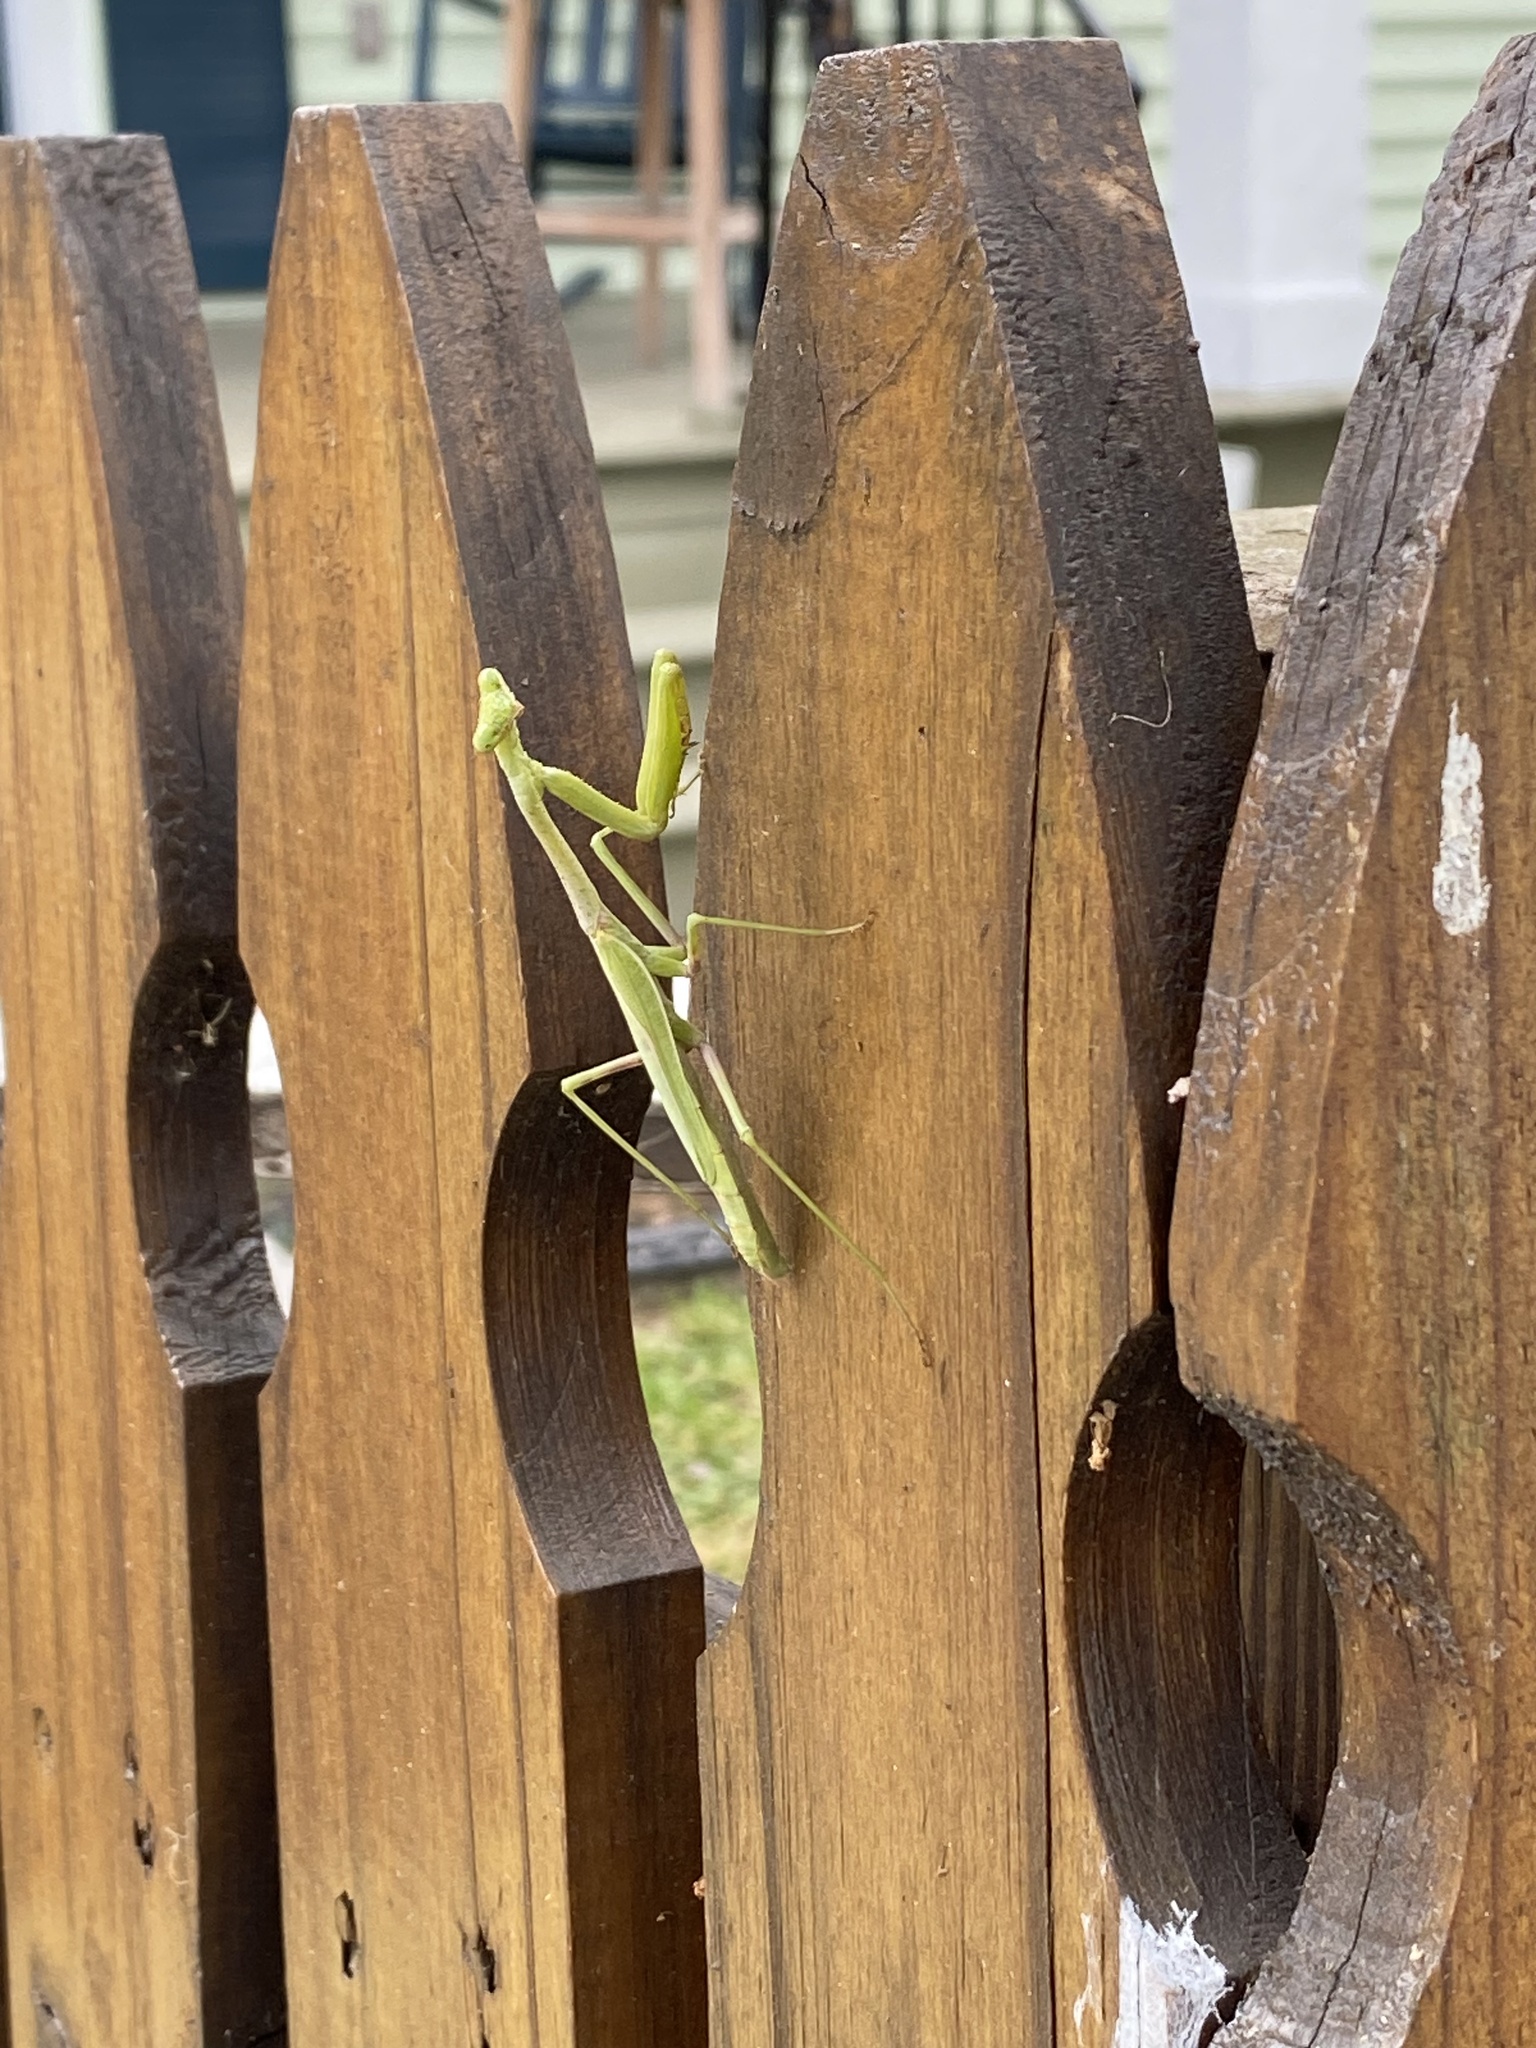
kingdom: Animalia
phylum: Arthropoda
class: Insecta
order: Mantodea
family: Mantidae
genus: Stagmomantis
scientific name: Stagmomantis carolina
